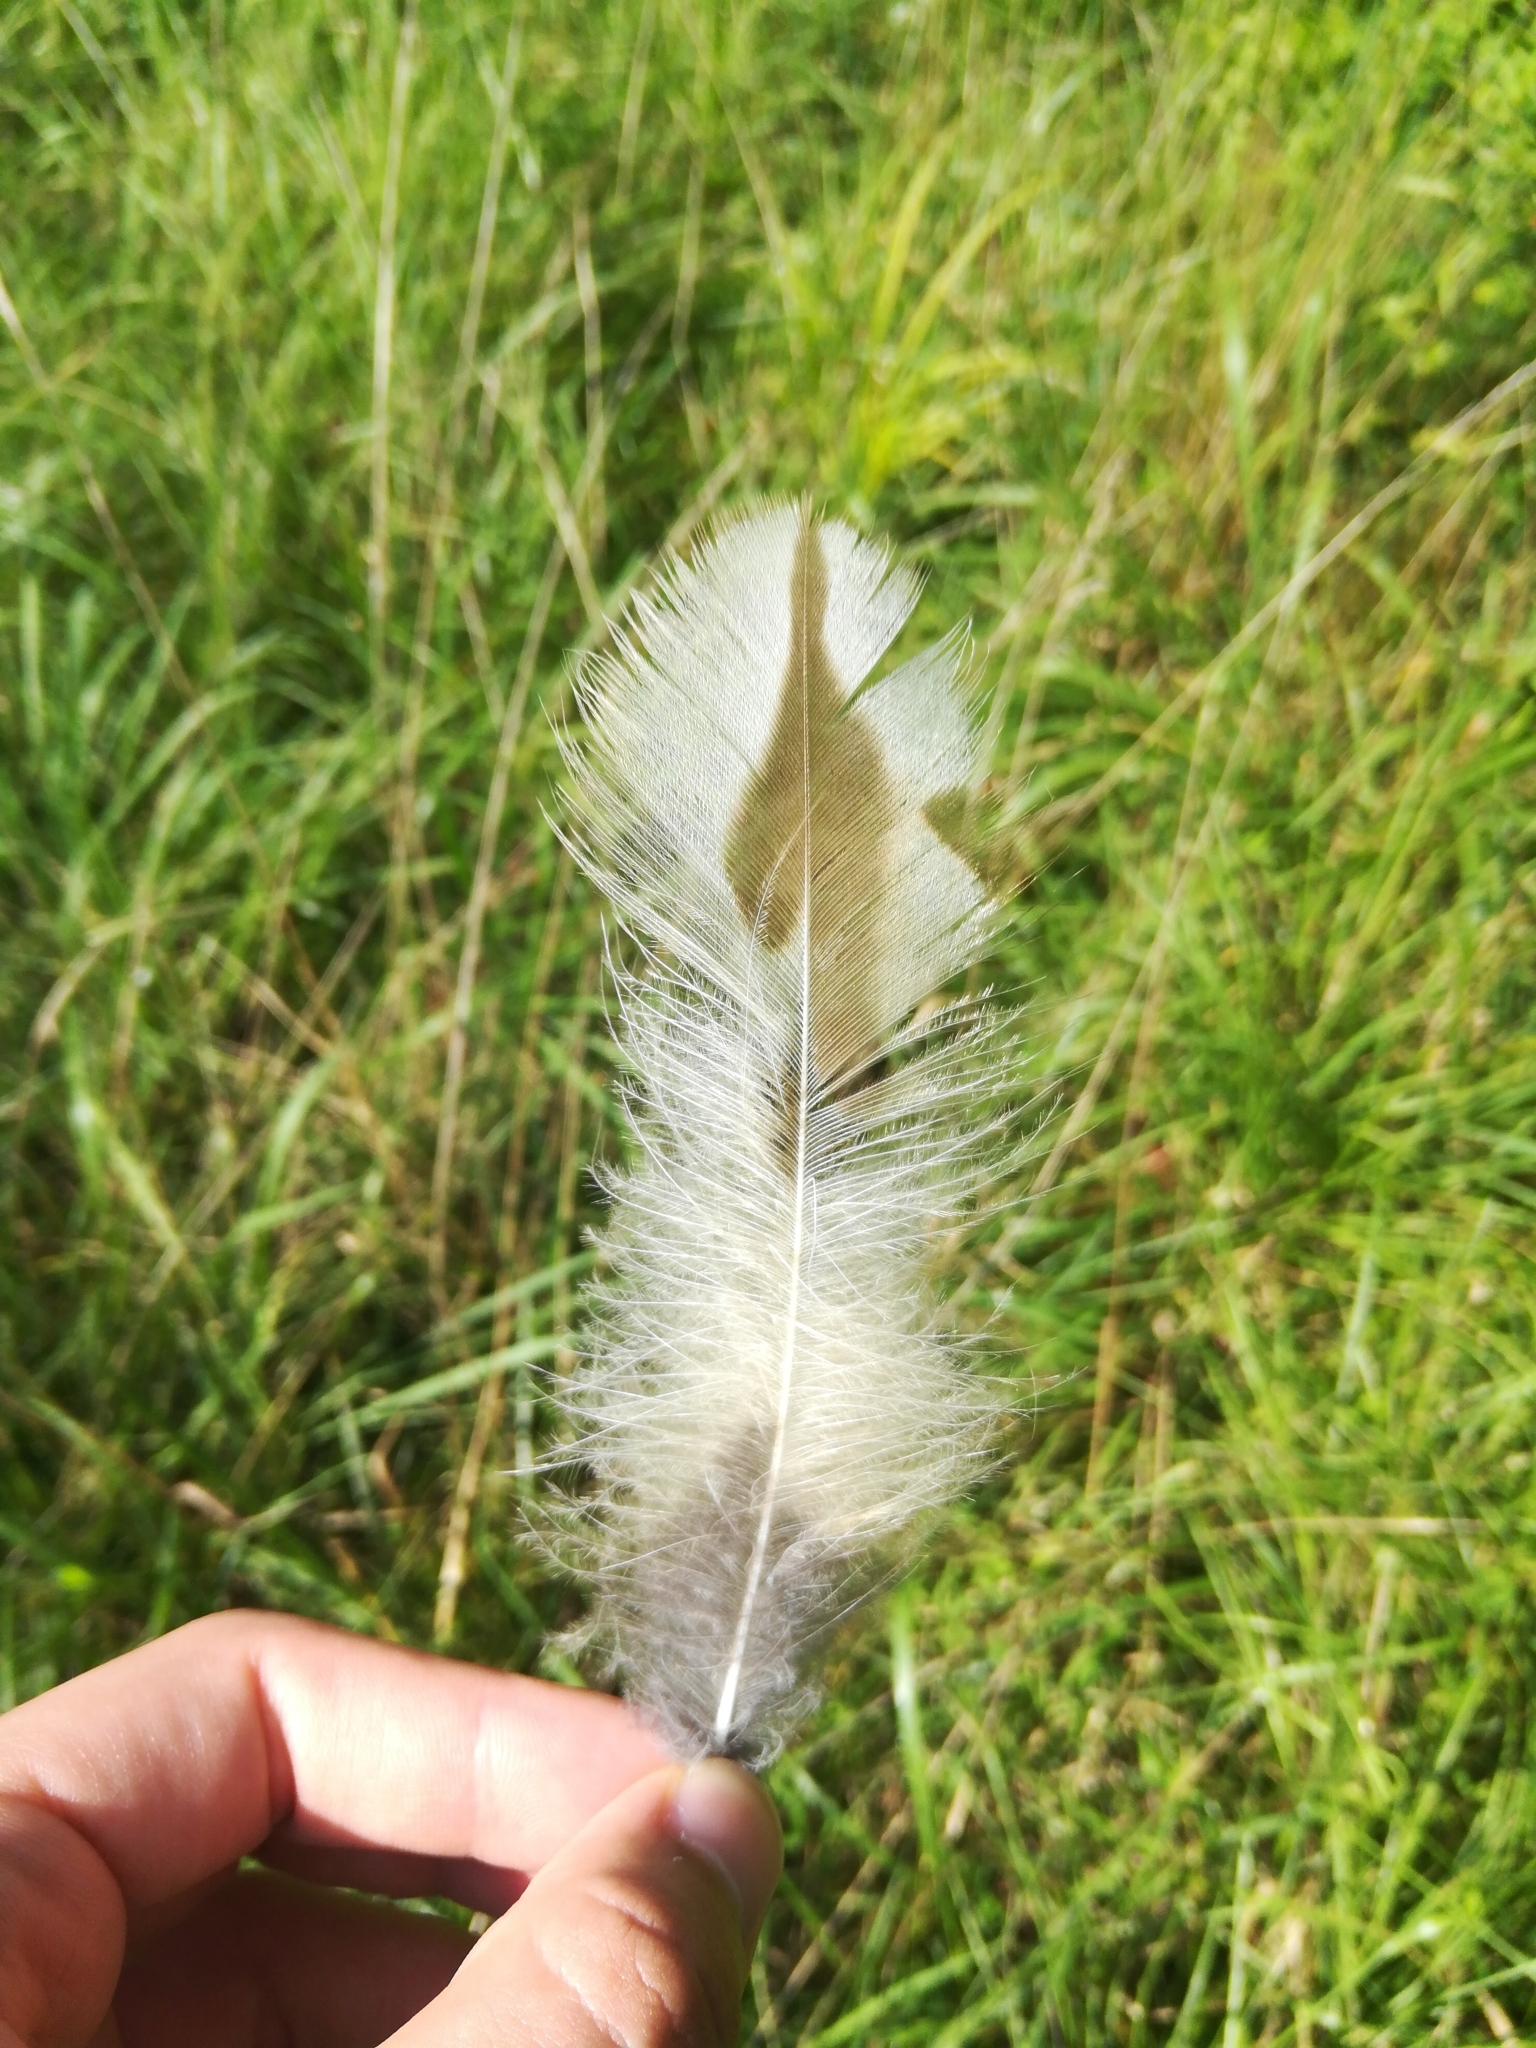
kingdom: Animalia
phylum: Chordata
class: Aves
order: Strigiformes
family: Strigidae
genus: Strix
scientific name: Strix varia
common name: Barred owl
